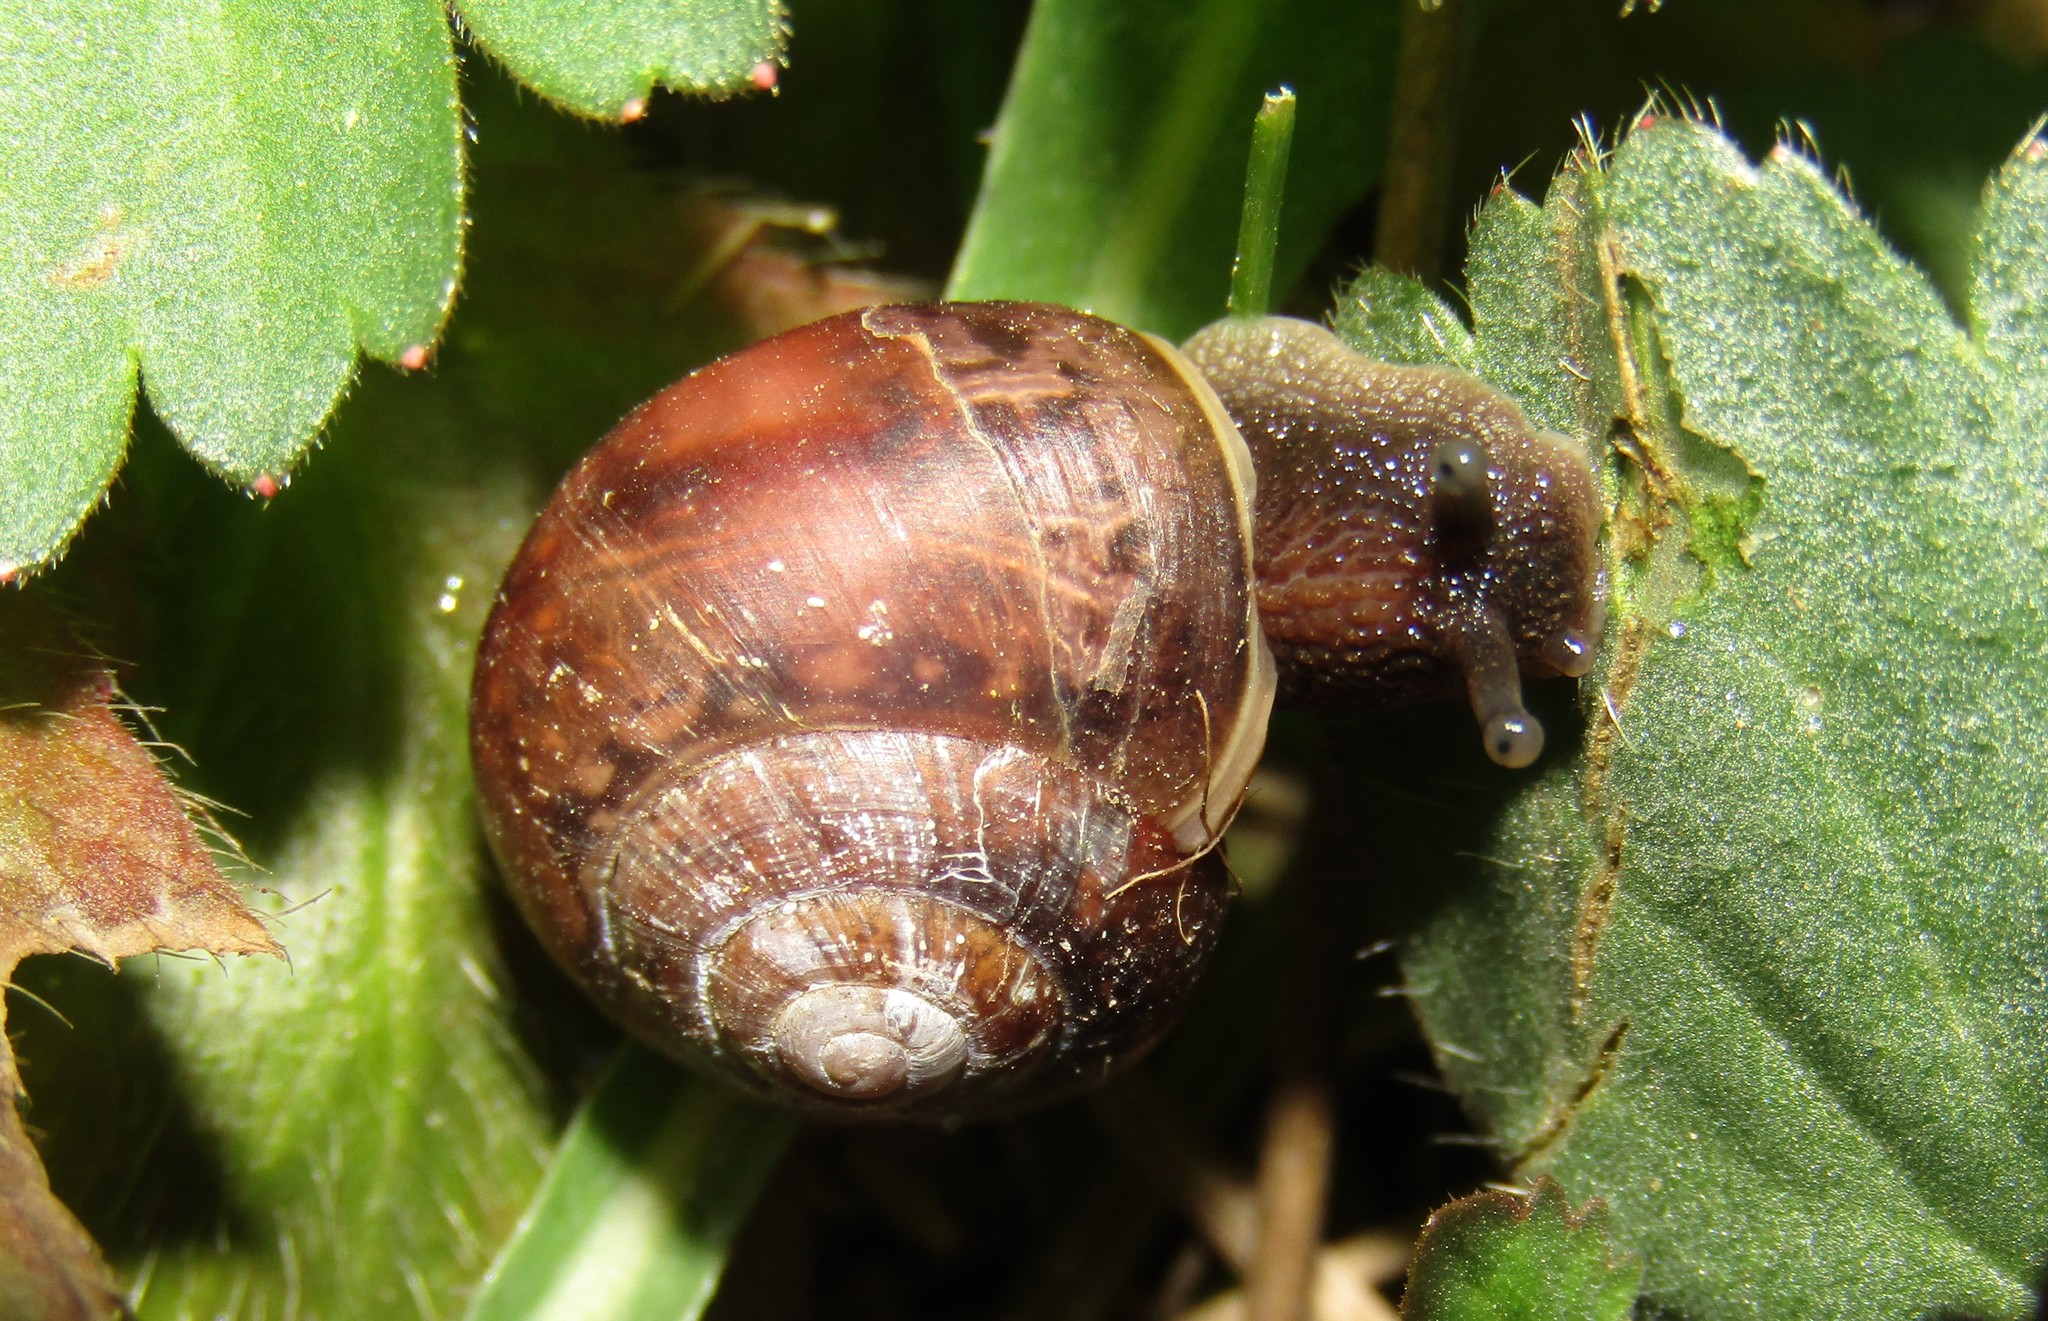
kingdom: Animalia
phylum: Mollusca
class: Gastropoda
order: Stylommatophora
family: Camaenidae
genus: Fruticicola
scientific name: Fruticicola fruticum
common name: Bush snail
